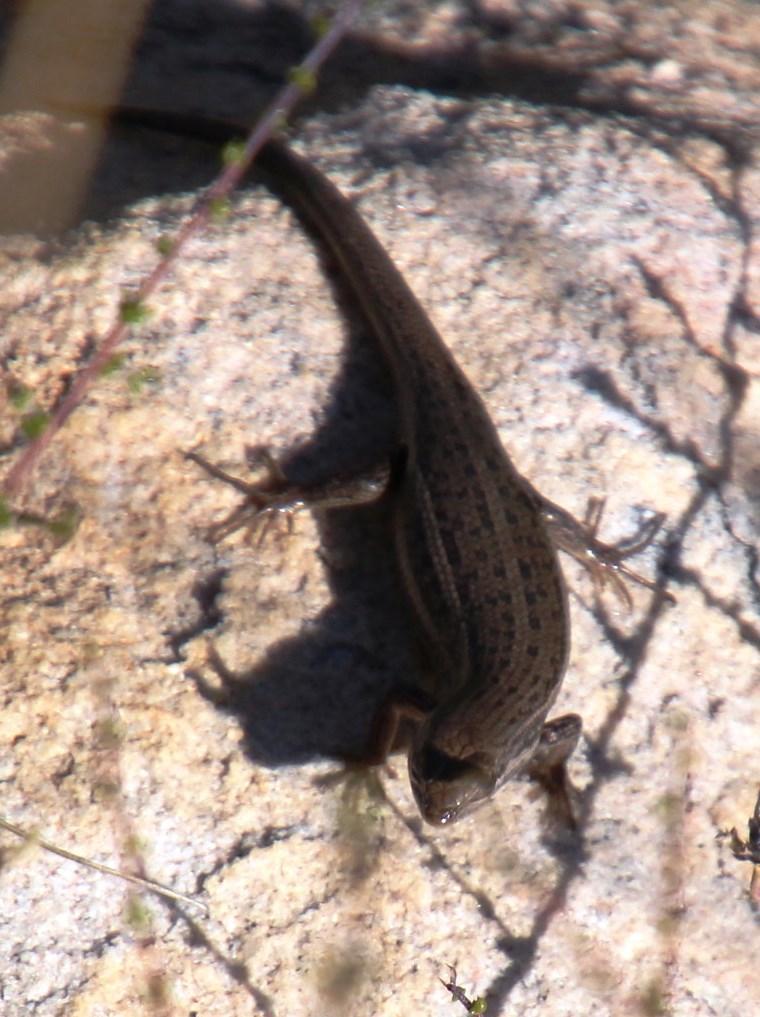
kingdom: Animalia
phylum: Chordata
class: Squamata
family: Scincidae
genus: Trachylepis
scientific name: Trachylepis variegata
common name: Variegated skink
